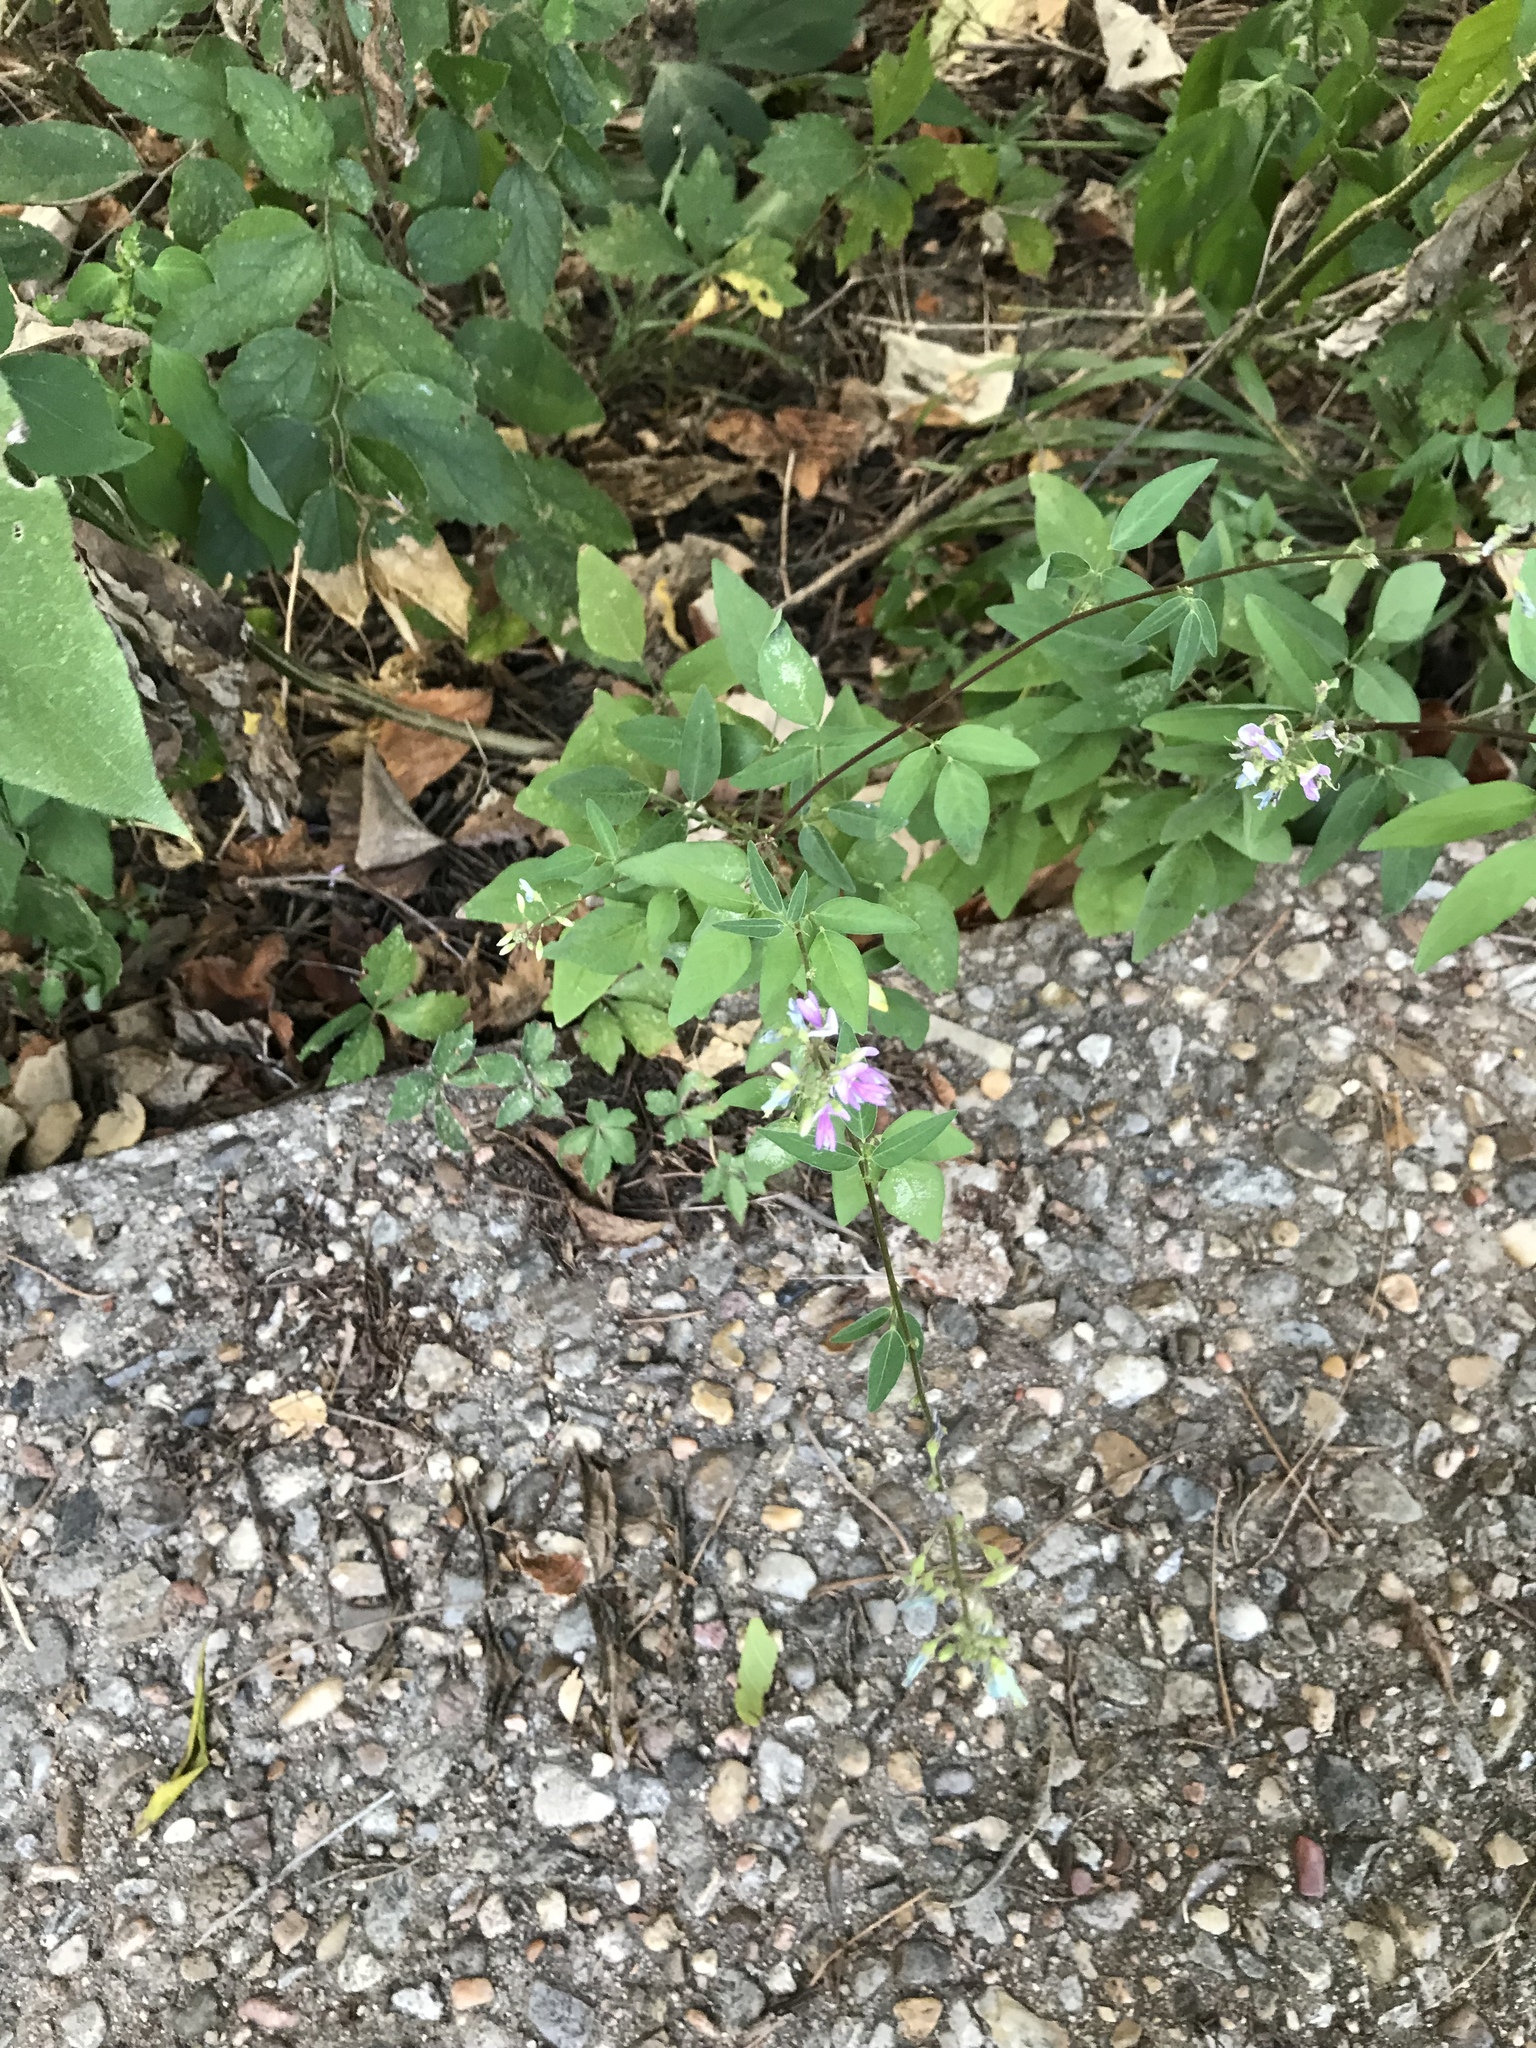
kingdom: Plantae
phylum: Tracheophyta
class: Magnoliopsida
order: Fabales
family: Fabaceae
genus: Desmodium
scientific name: Desmodium paniculatum
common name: Panicled tick-clover
